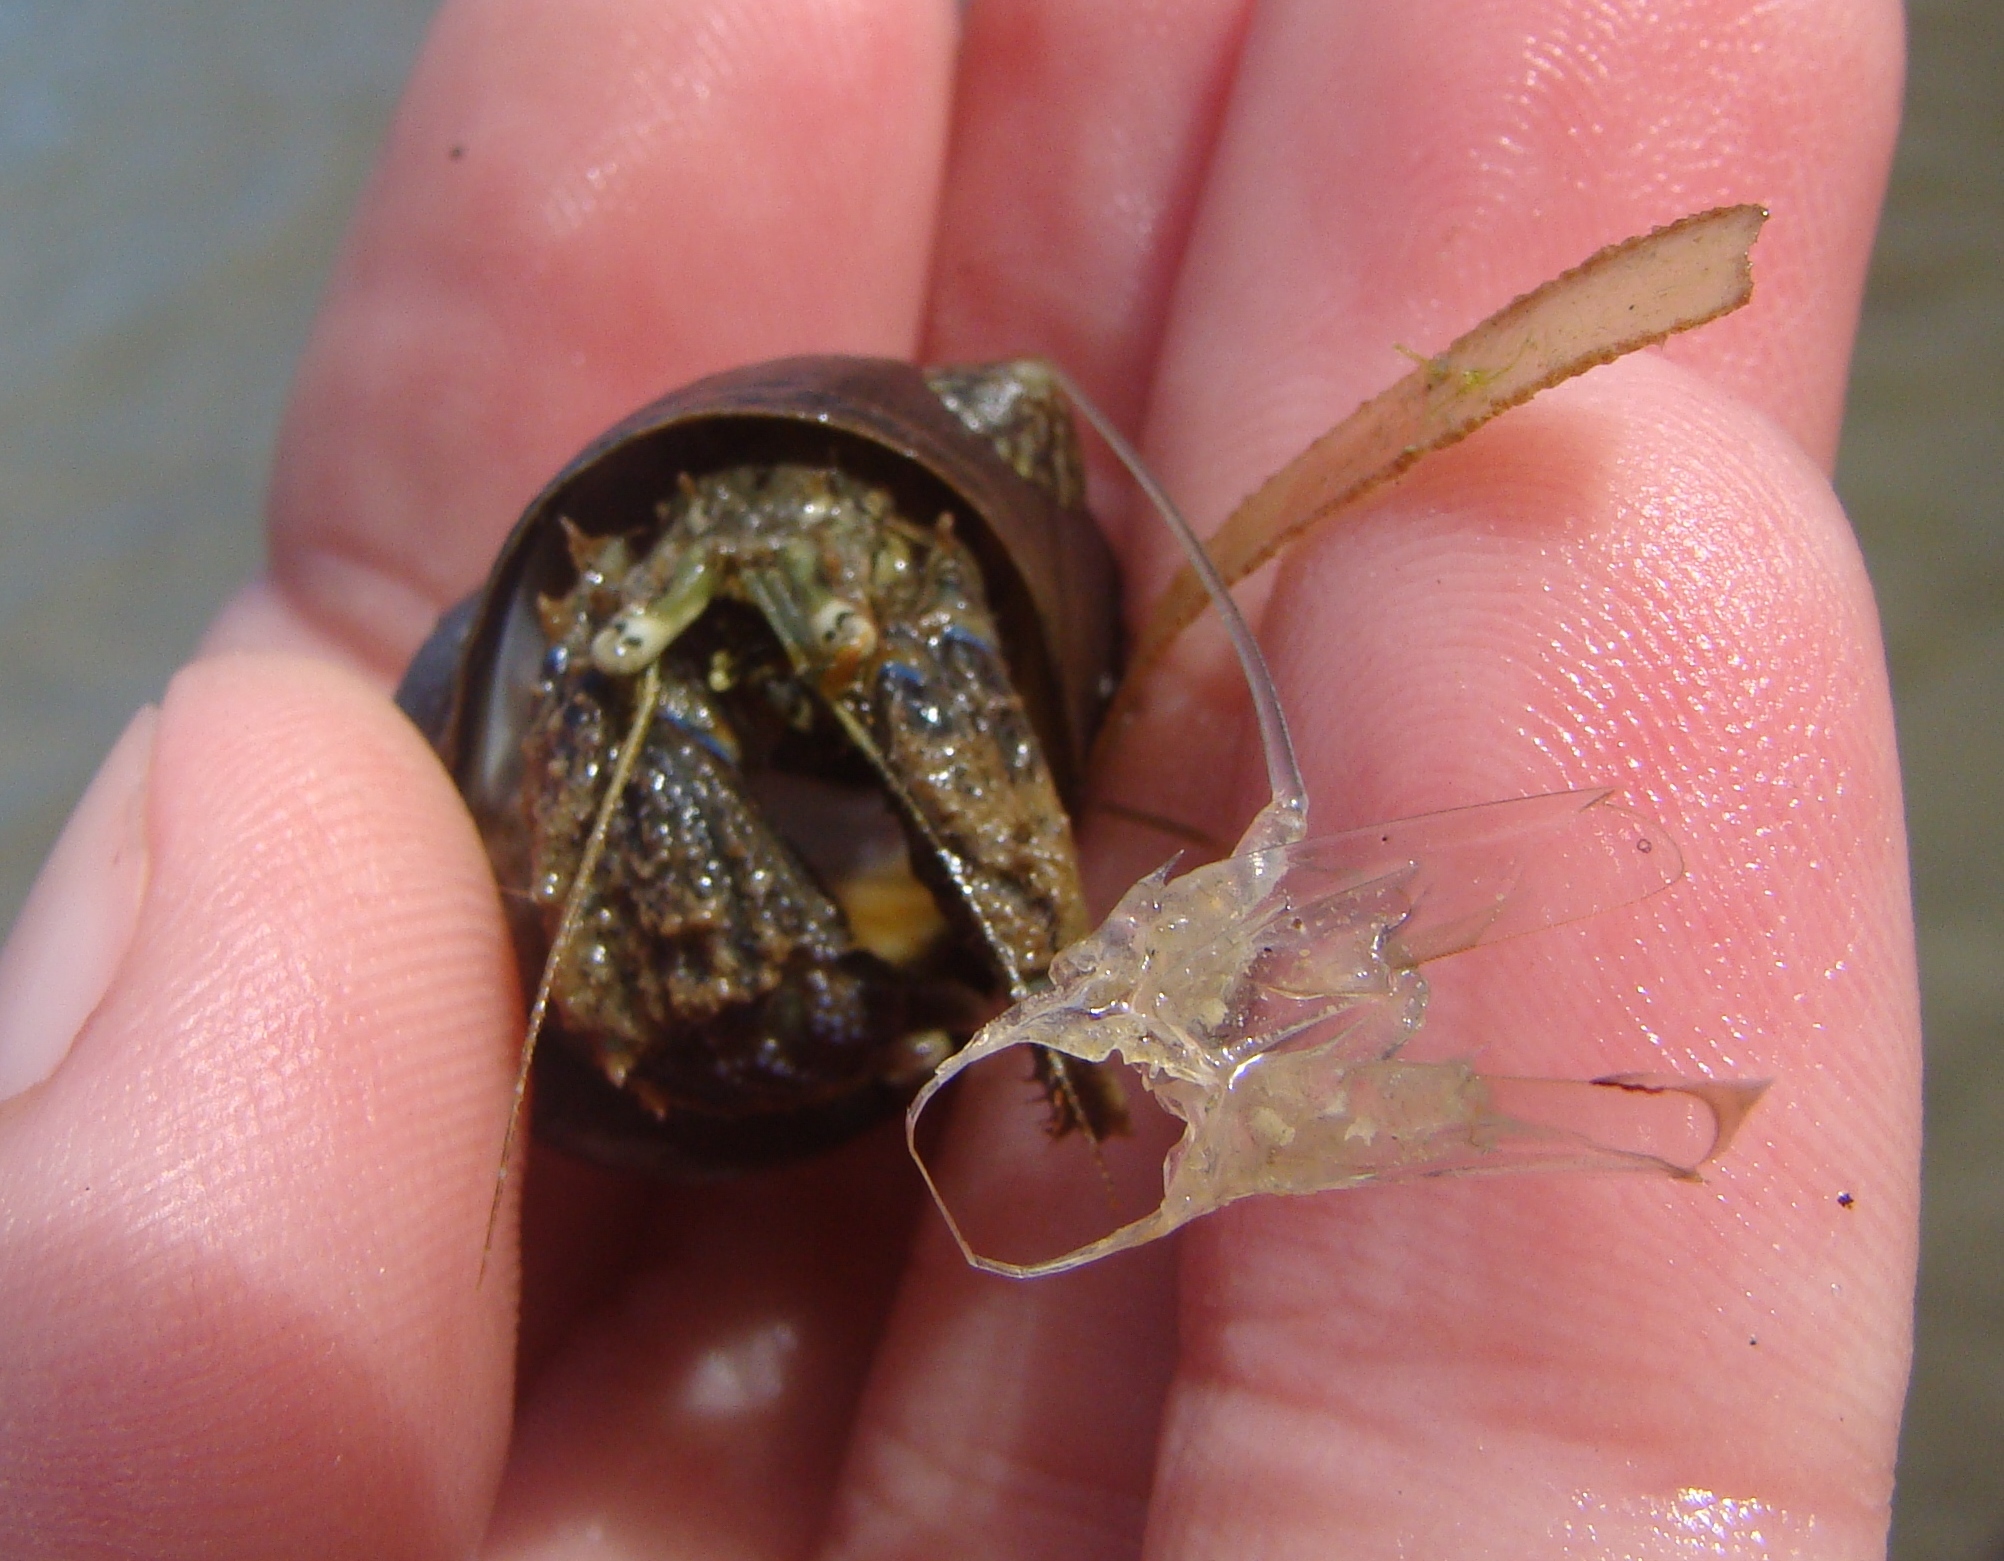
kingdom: Animalia
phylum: Arthropoda
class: Malacostraca
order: Decapoda
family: Paguridae
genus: Pagurus
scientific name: Pagurus novizealandiae
